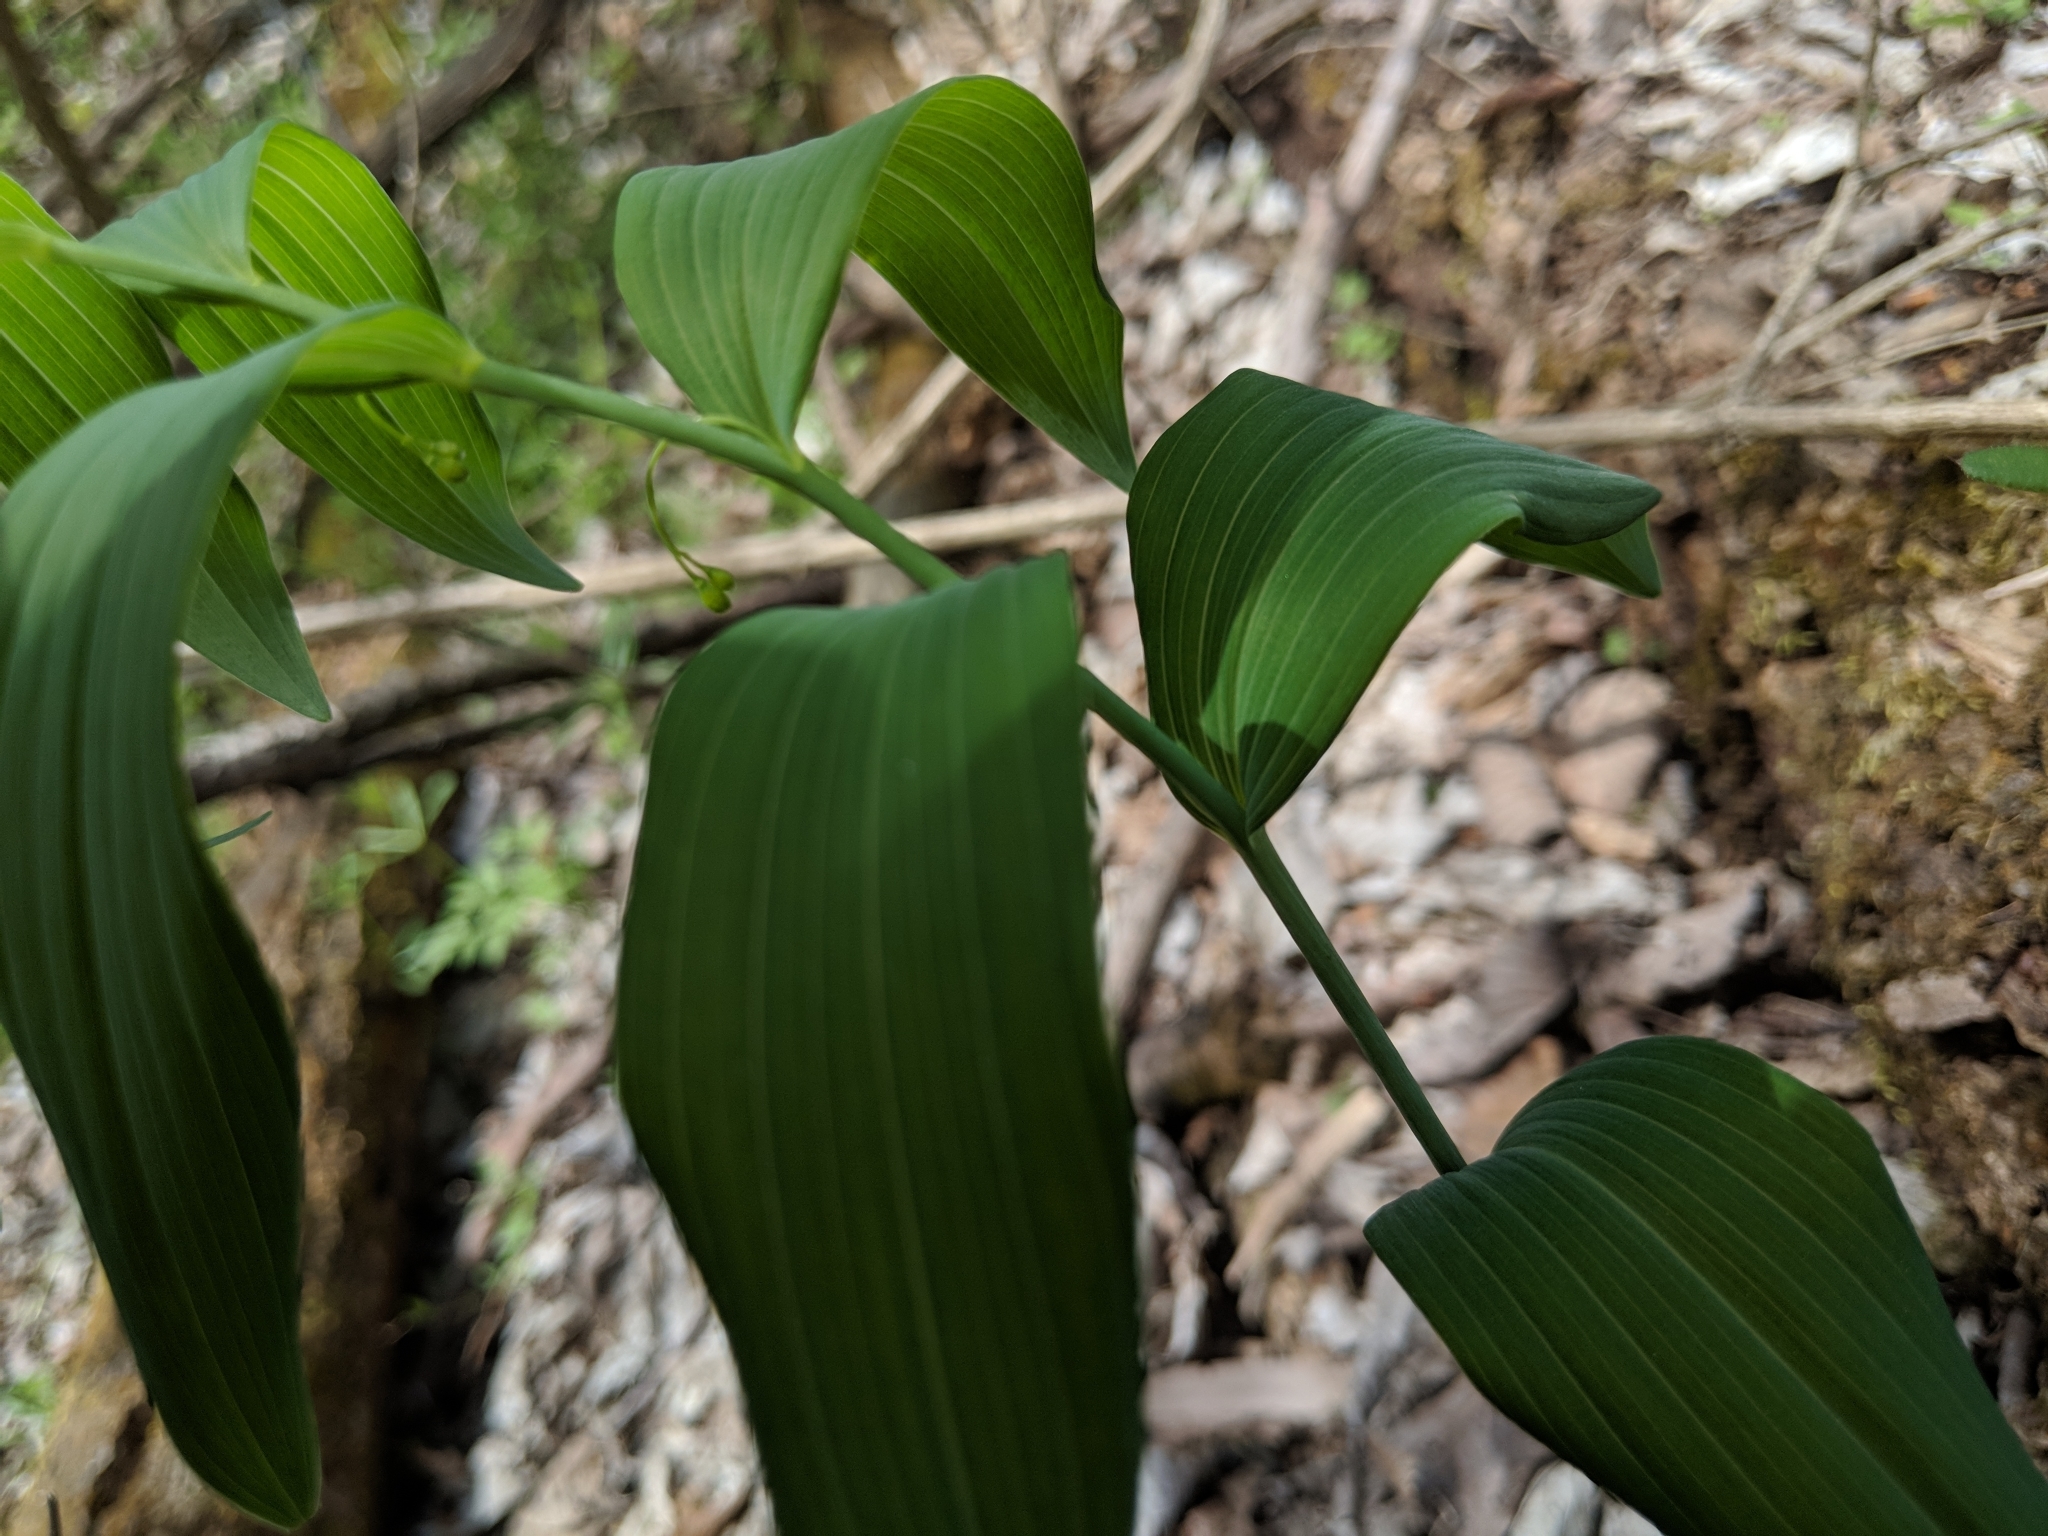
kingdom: Plantae
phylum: Tracheophyta
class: Liliopsida
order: Asparagales
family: Asparagaceae
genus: Polygonatum
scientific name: Polygonatum biflorum
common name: American solomon's-seal
